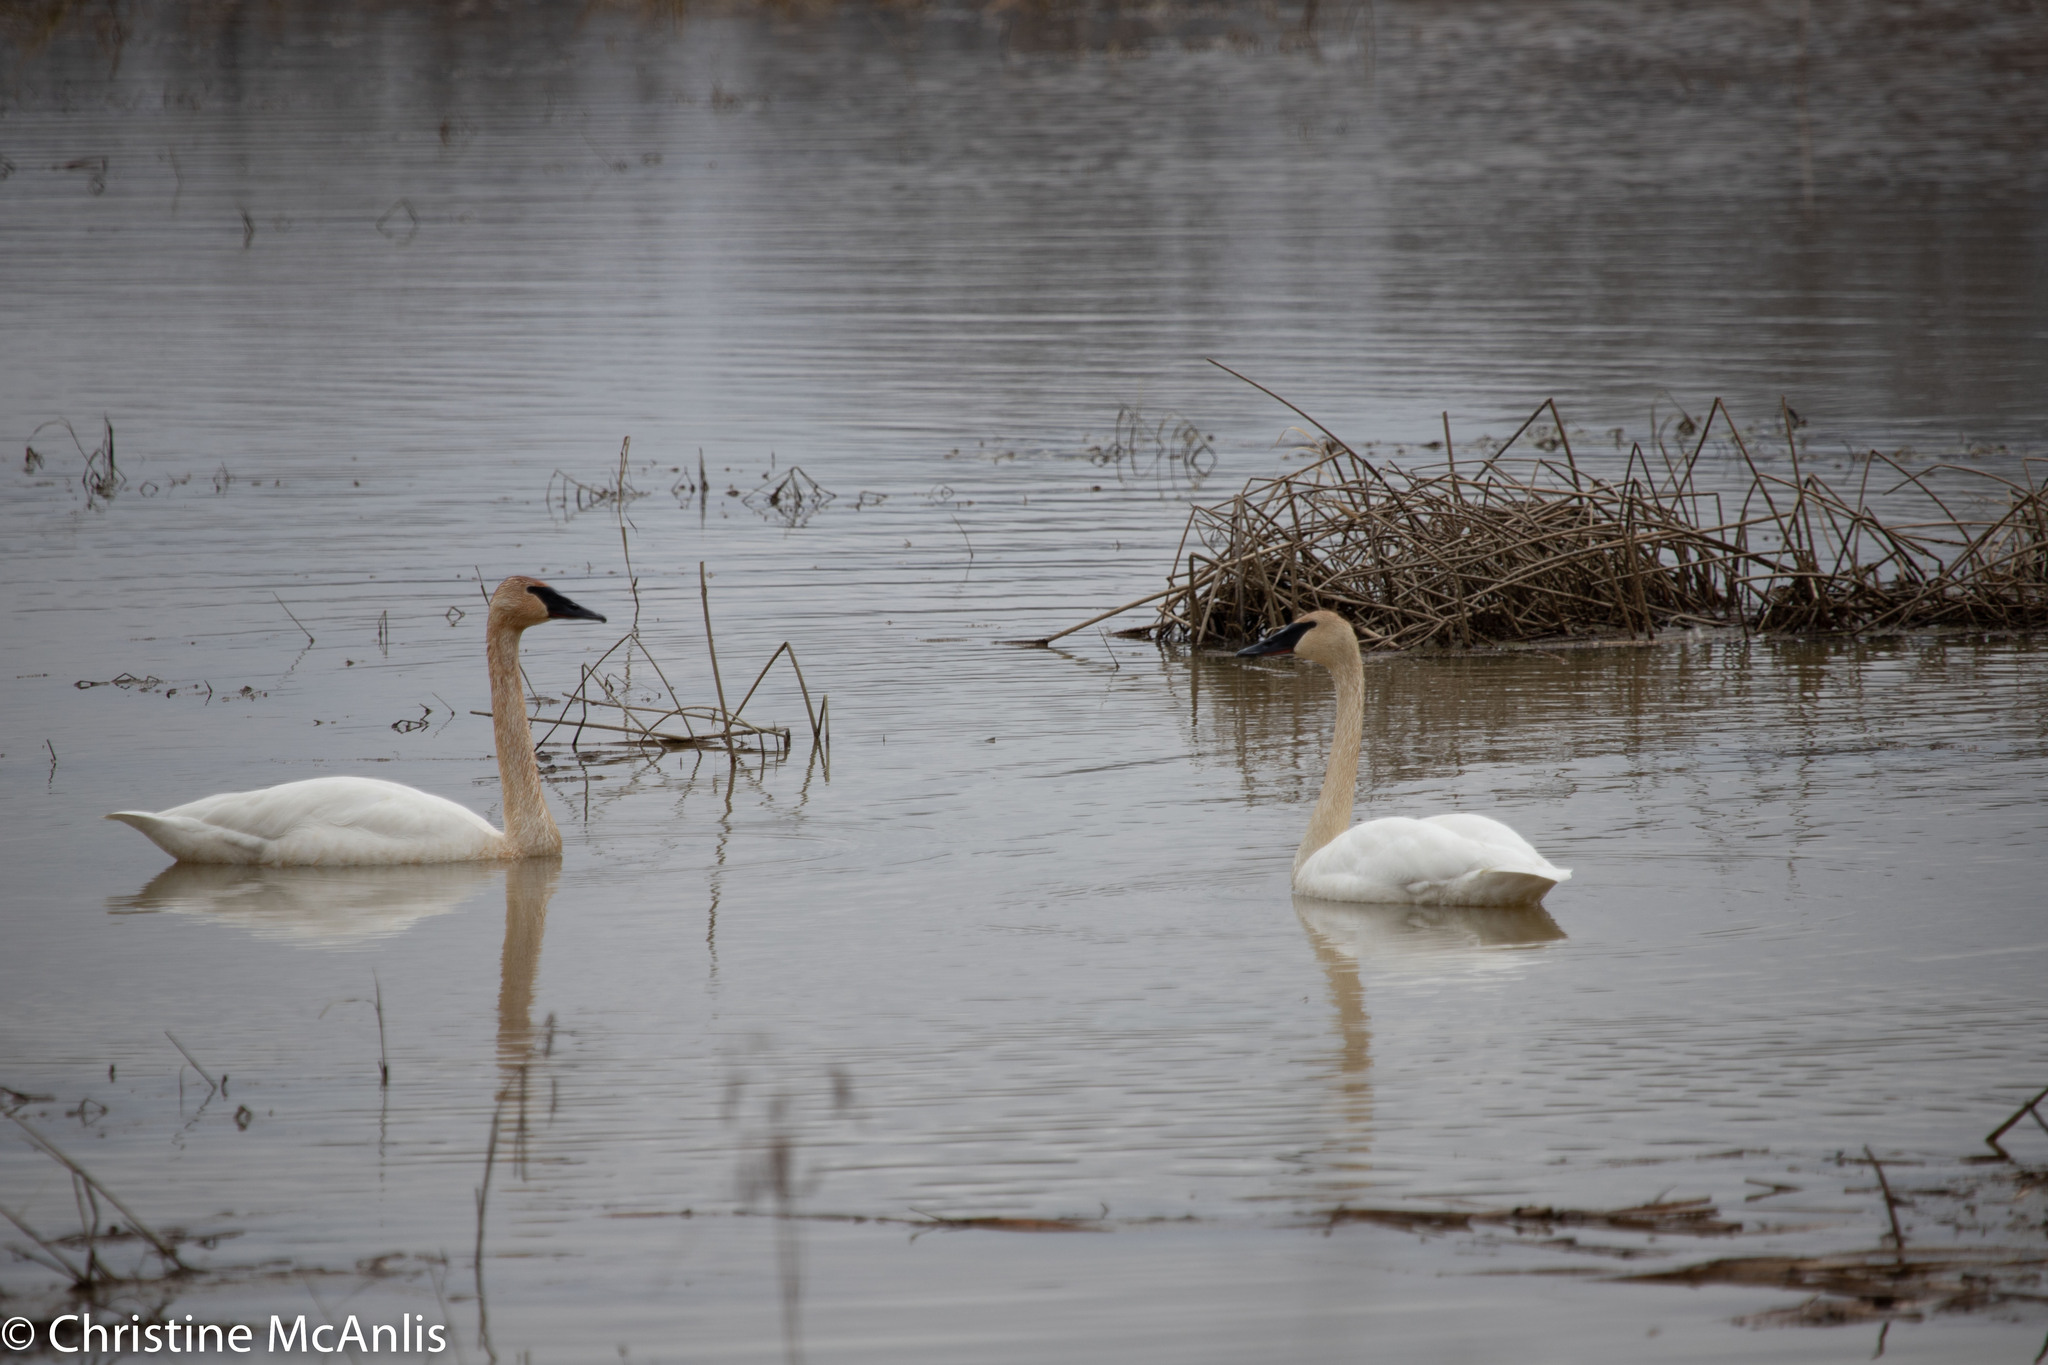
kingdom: Animalia
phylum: Chordata
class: Aves
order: Anseriformes
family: Anatidae
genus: Cygnus
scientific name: Cygnus buccinator
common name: Trumpeter swan
